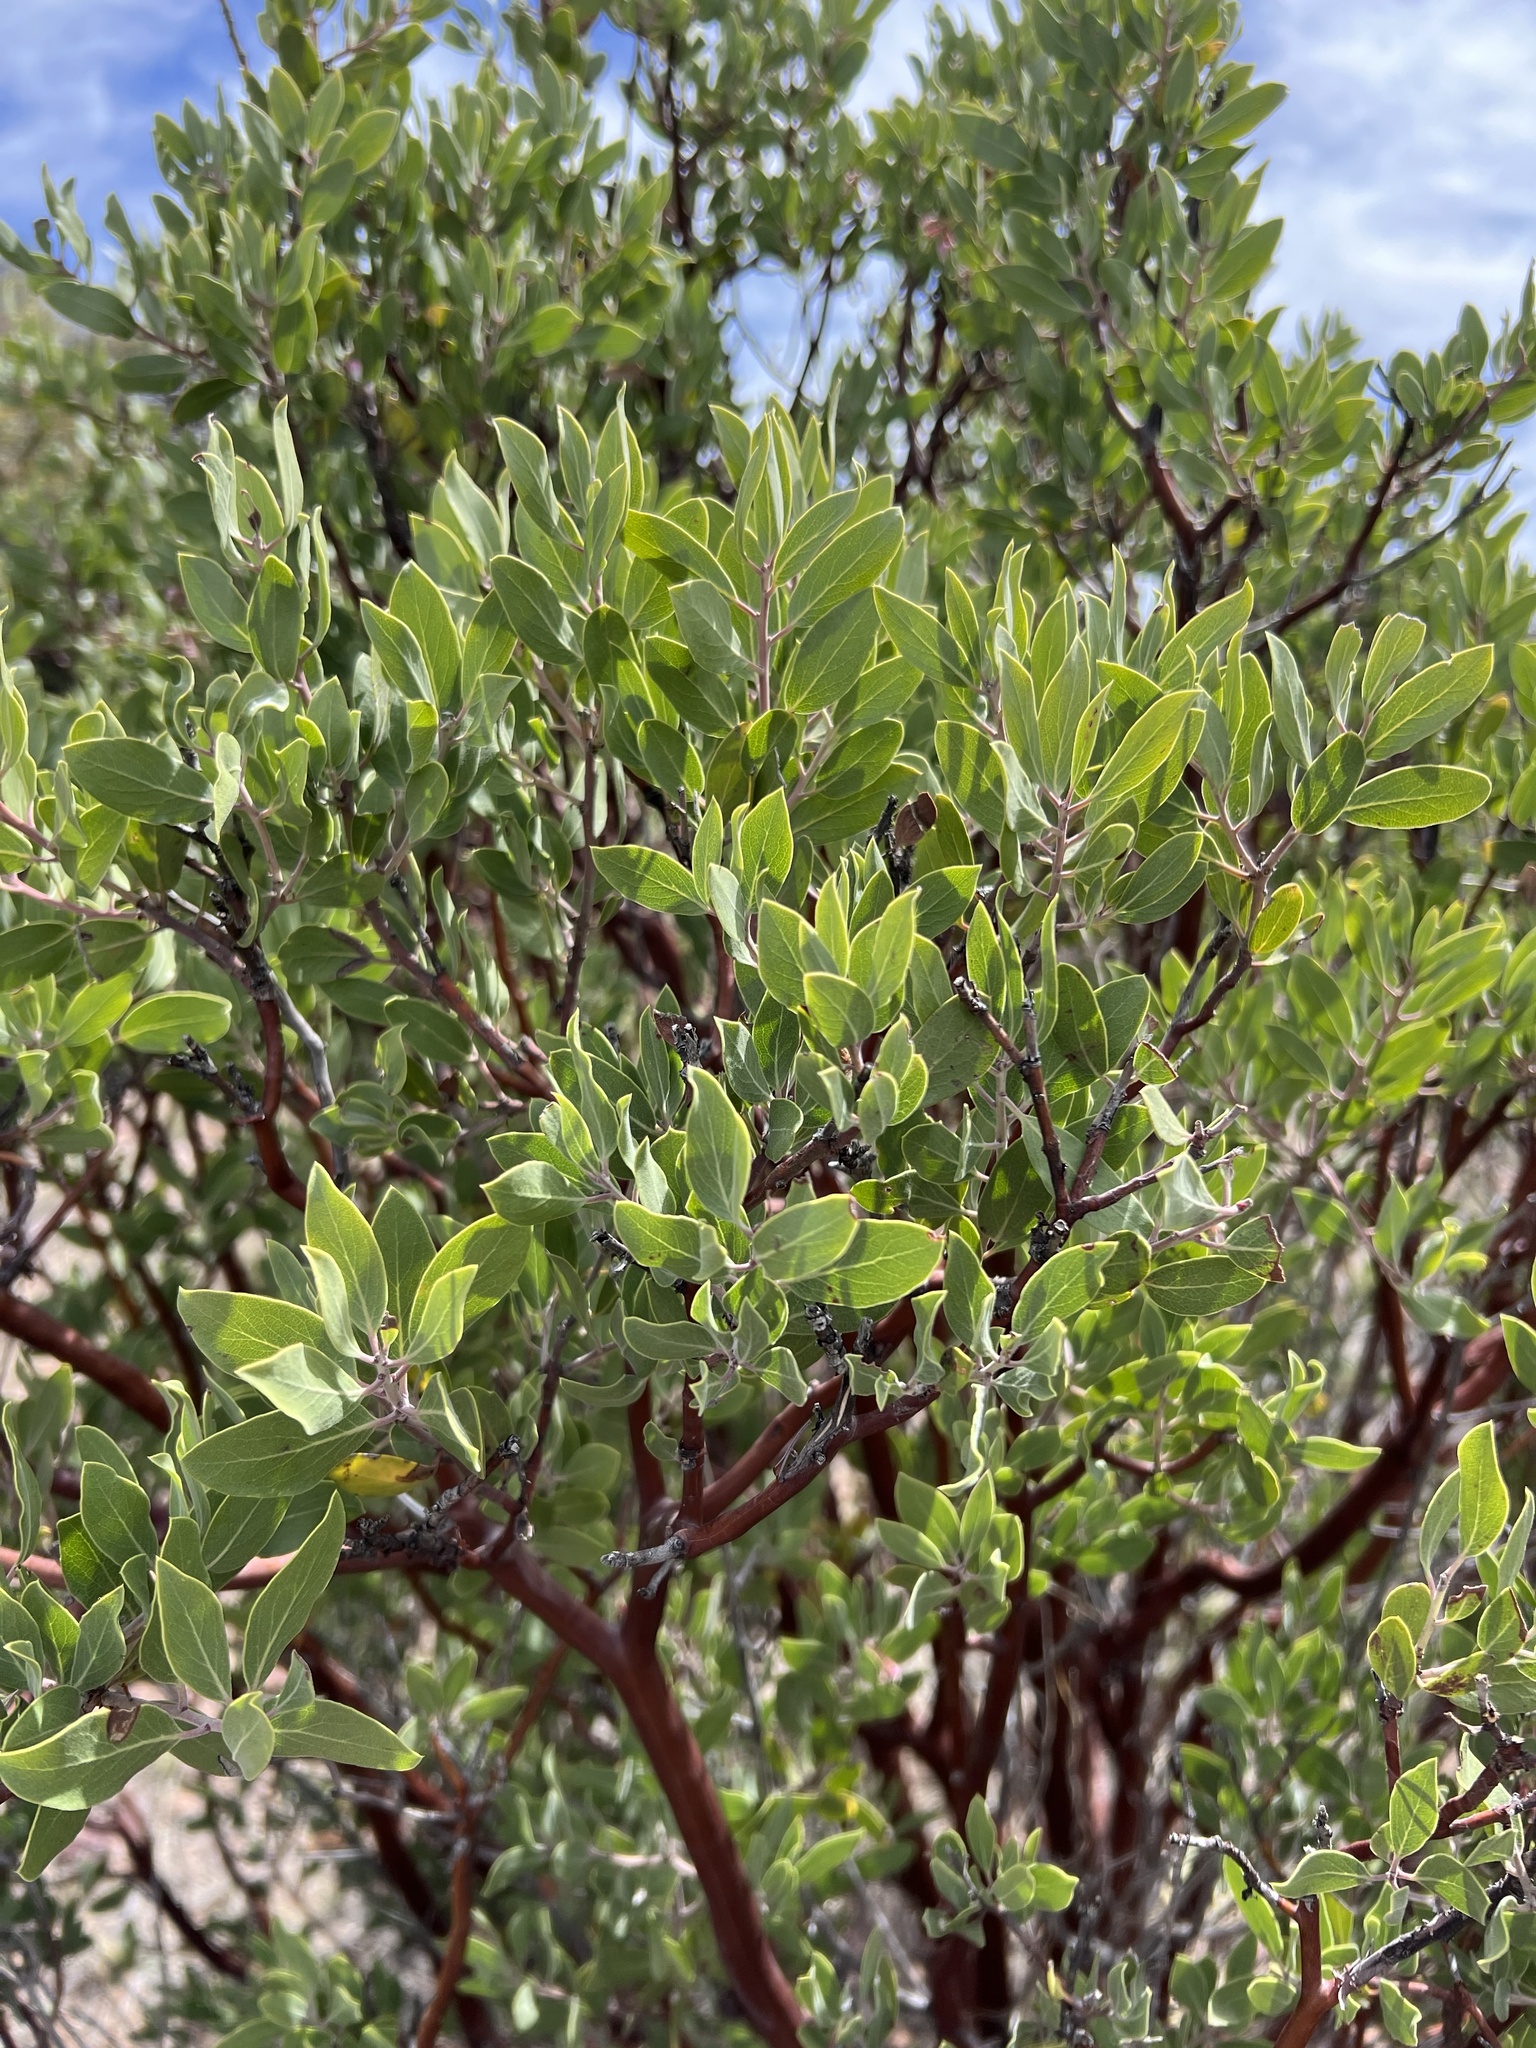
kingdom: Plantae
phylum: Tracheophyta
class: Magnoliopsida
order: Ericales
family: Ericaceae
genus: Arctostaphylos
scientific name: Arctostaphylos pungens
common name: Mexican manzanita
